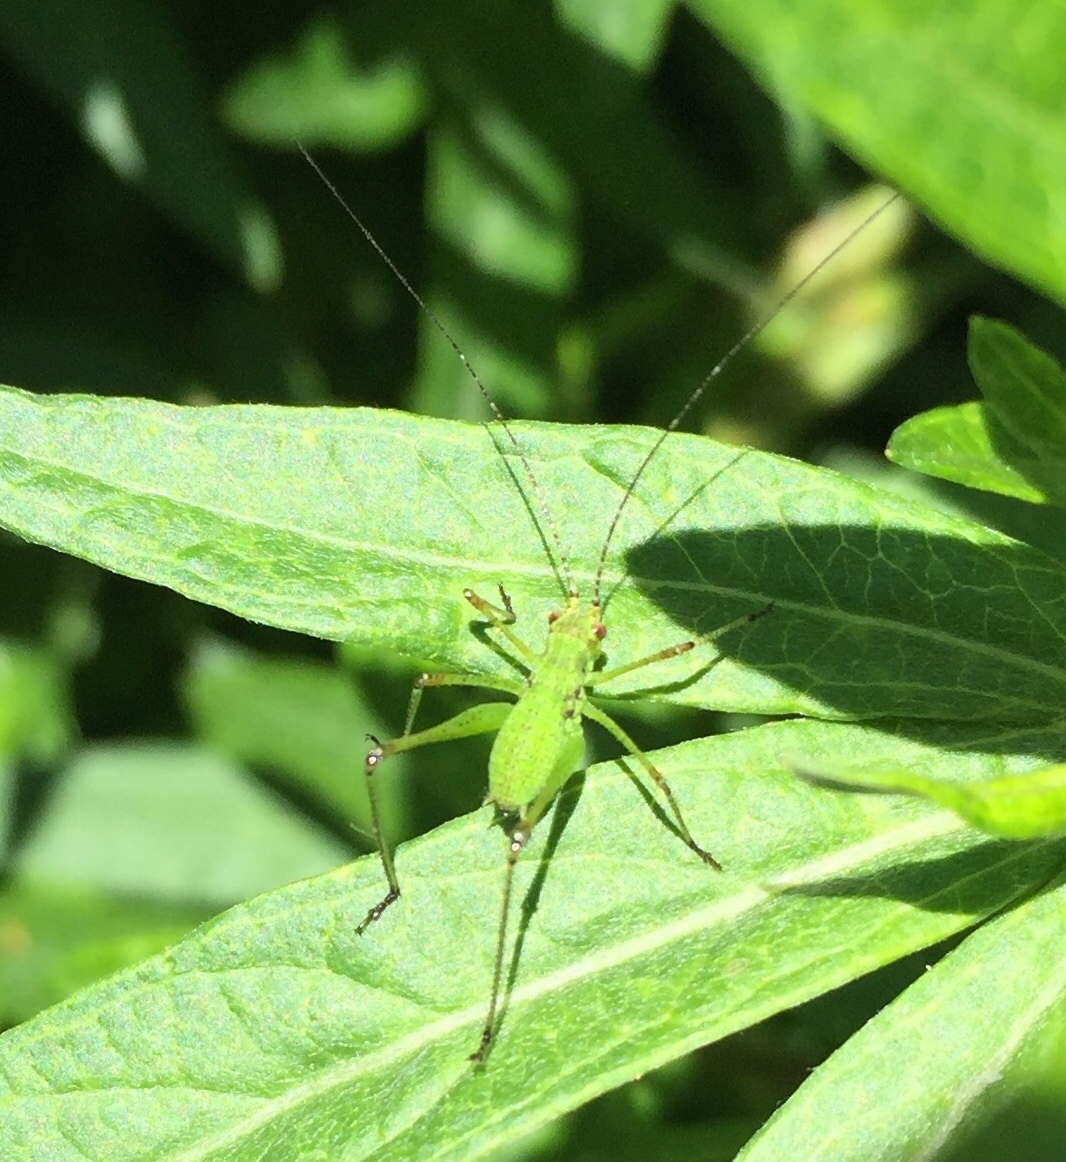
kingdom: Animalia
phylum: Arthropoda
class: Insecta
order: Orthoptera
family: Tettigoniidae
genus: Phaneroptera
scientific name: Phaneroptera nana
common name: Southern sickle bush-cricket
